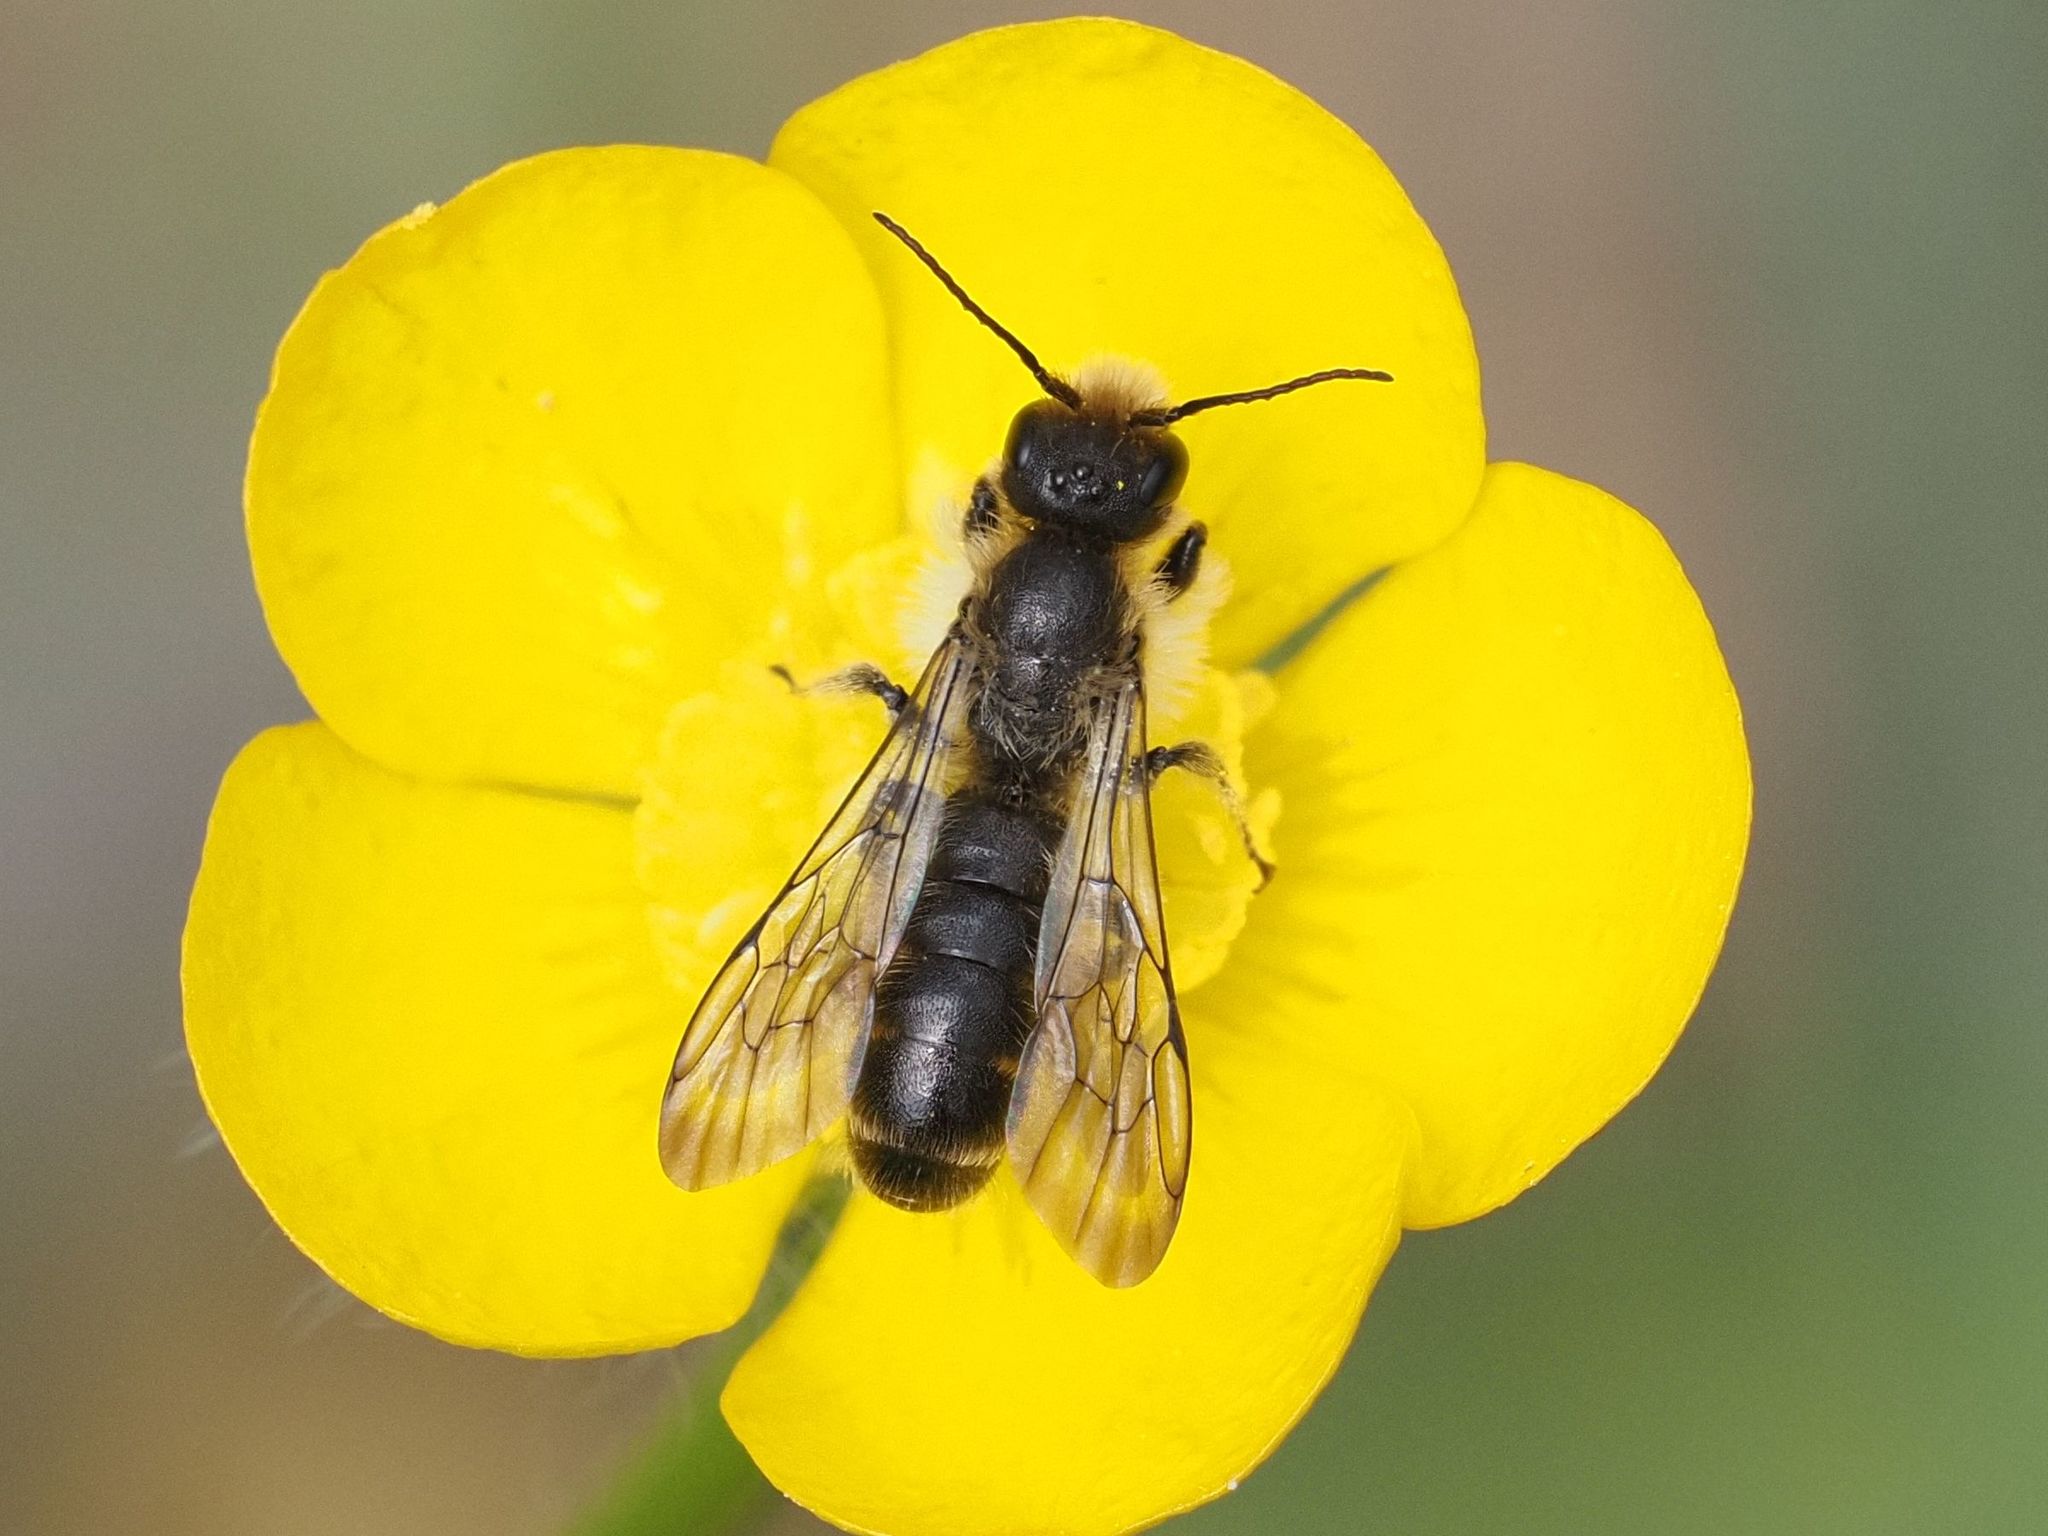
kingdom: Animalia
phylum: Arthropoda
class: Insecta
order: Hymenoptera
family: Megachilidae
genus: Chelostoma
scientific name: Chelostoma florisomne
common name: Sleepy carpenter bee
